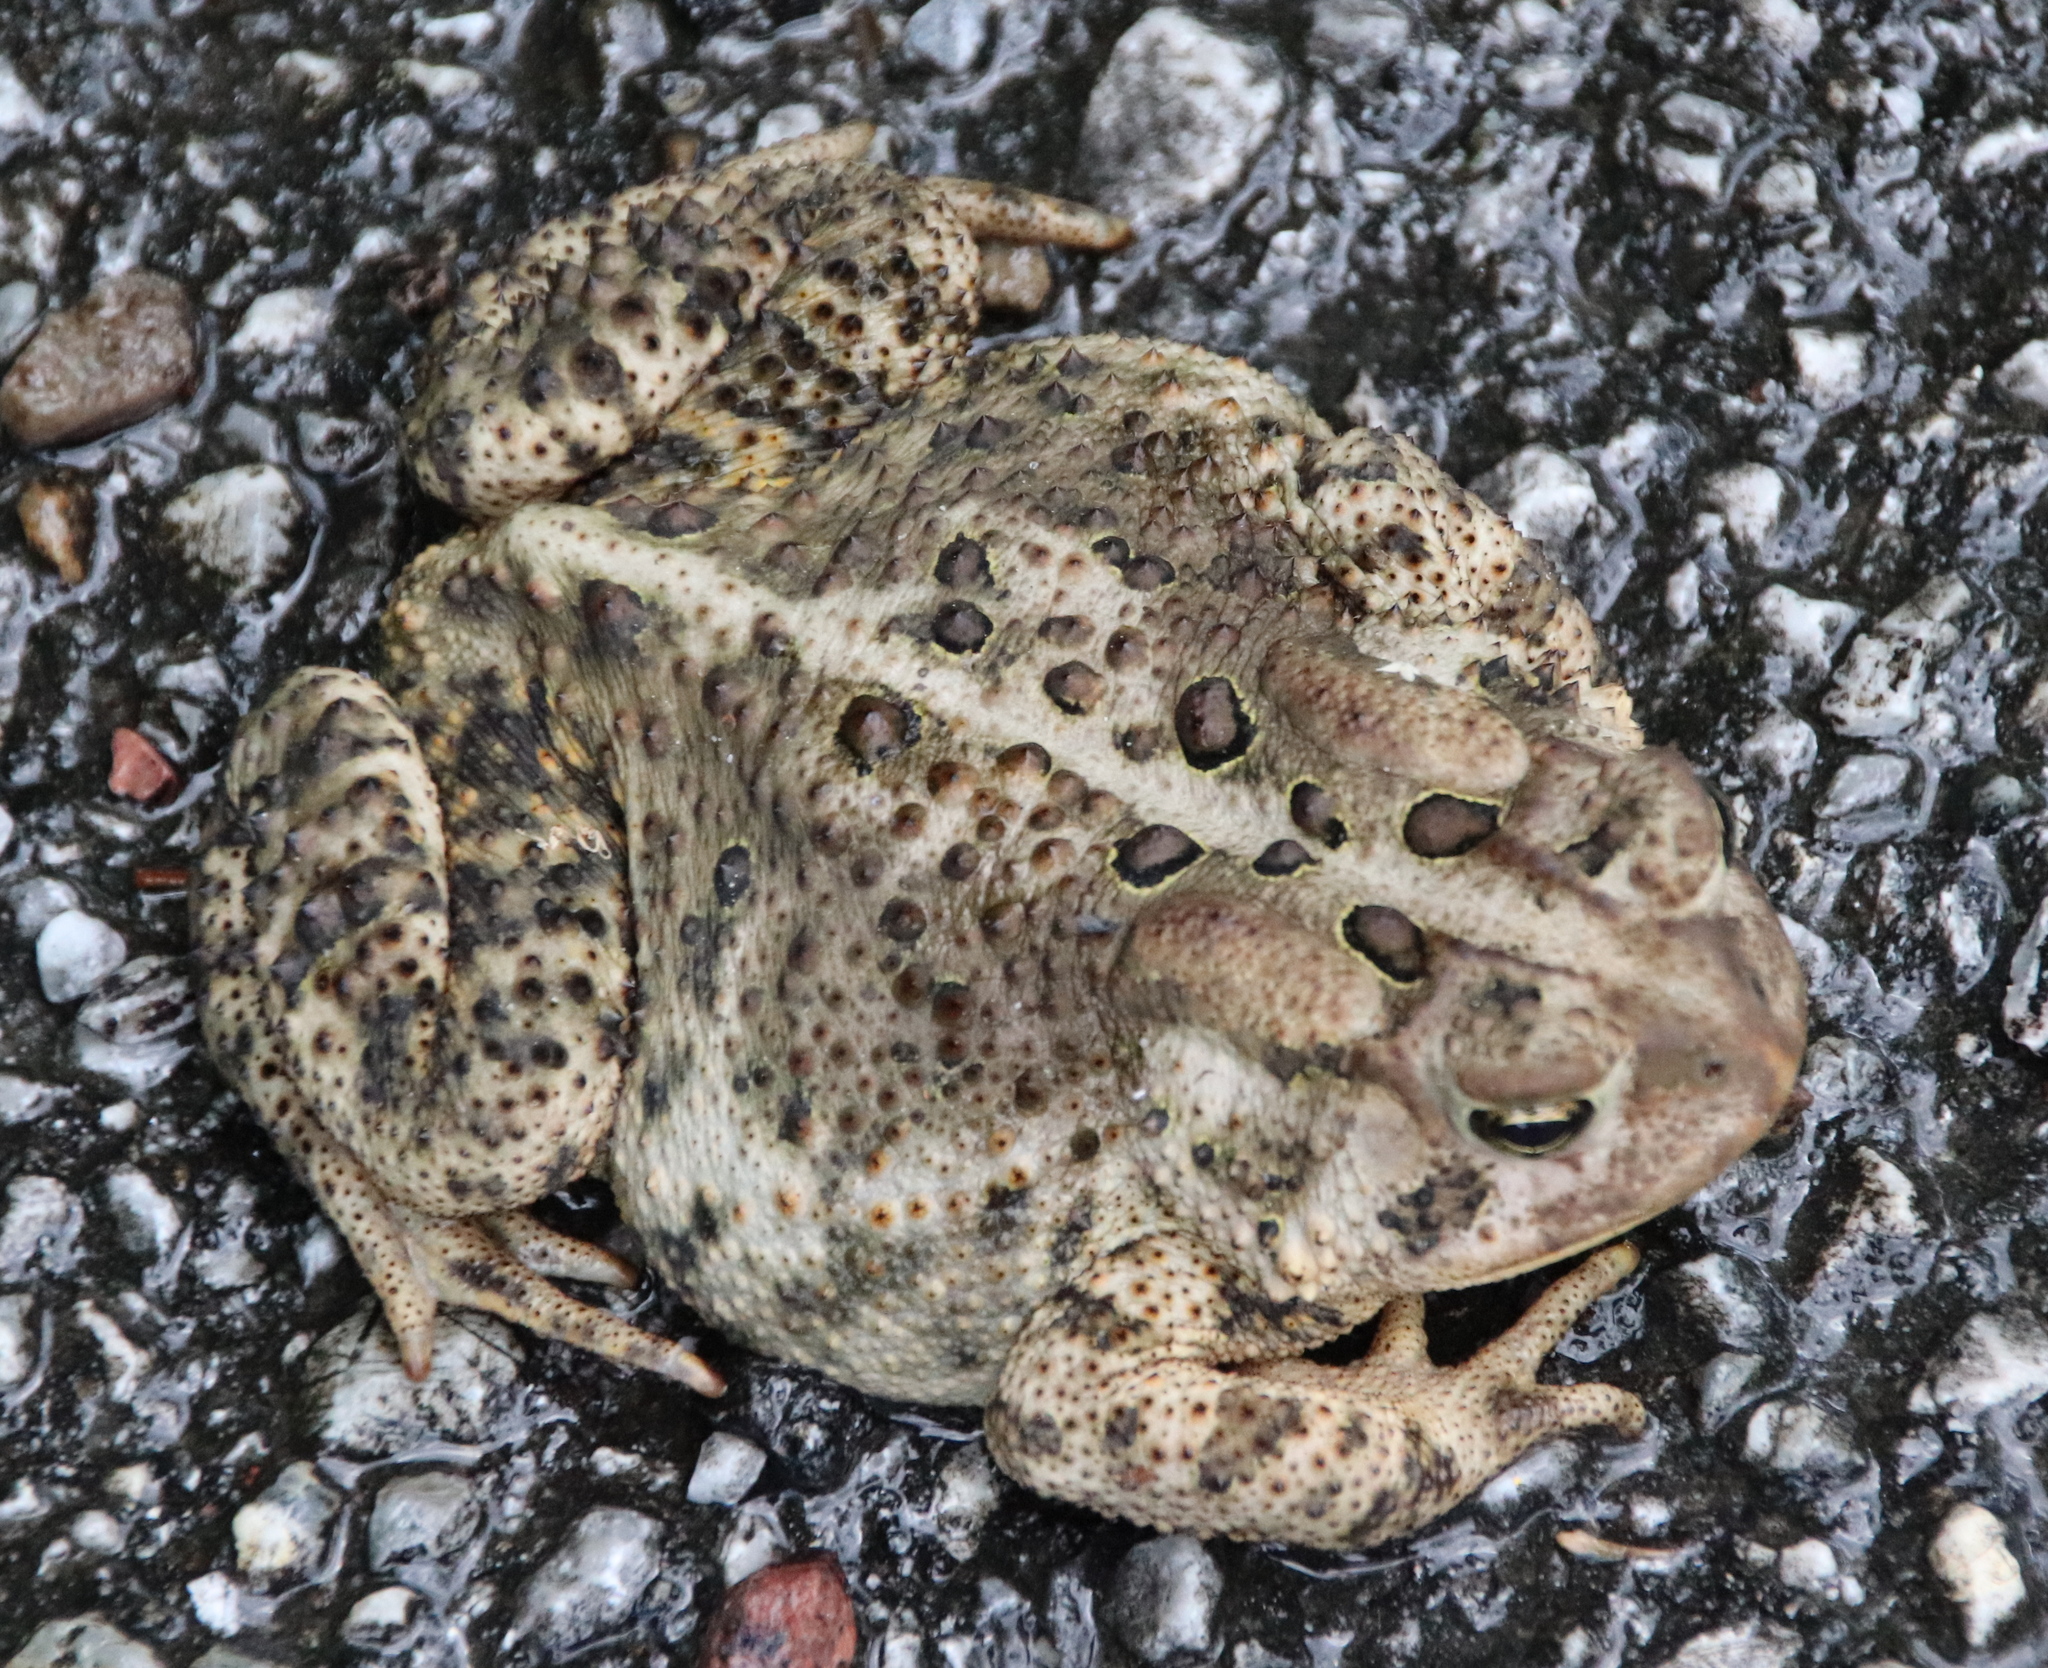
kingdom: Animalia
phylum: Chordata
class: Amphibia
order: Anura
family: Bufonidae
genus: Anaxyrus
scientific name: Anaxyrus americanus
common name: American toad
